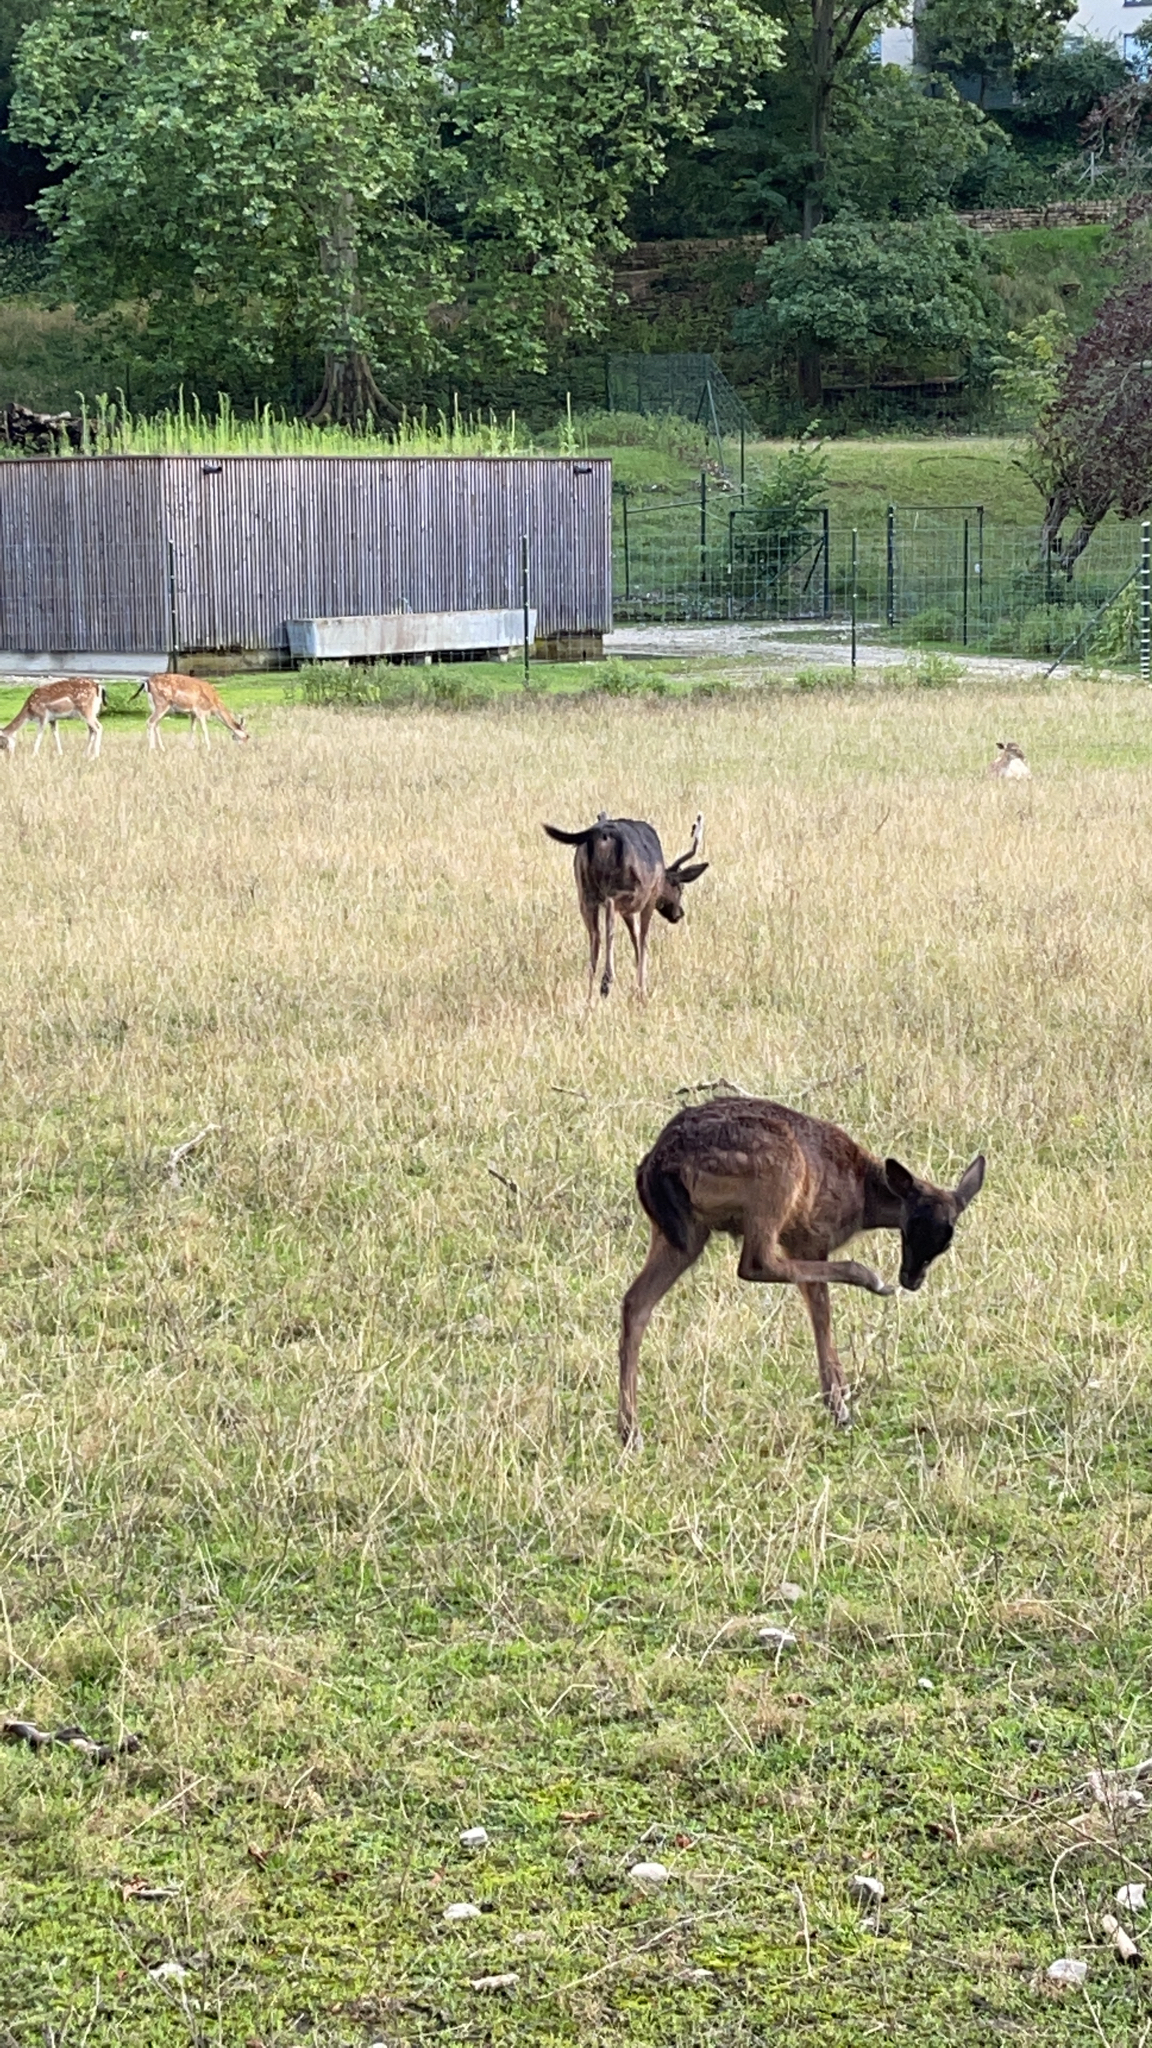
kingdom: Animalia
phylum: Chordata
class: Mammalia
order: Artiodactyla
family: Cervidae
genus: Dama
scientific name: Dama dama
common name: Fallow deer
